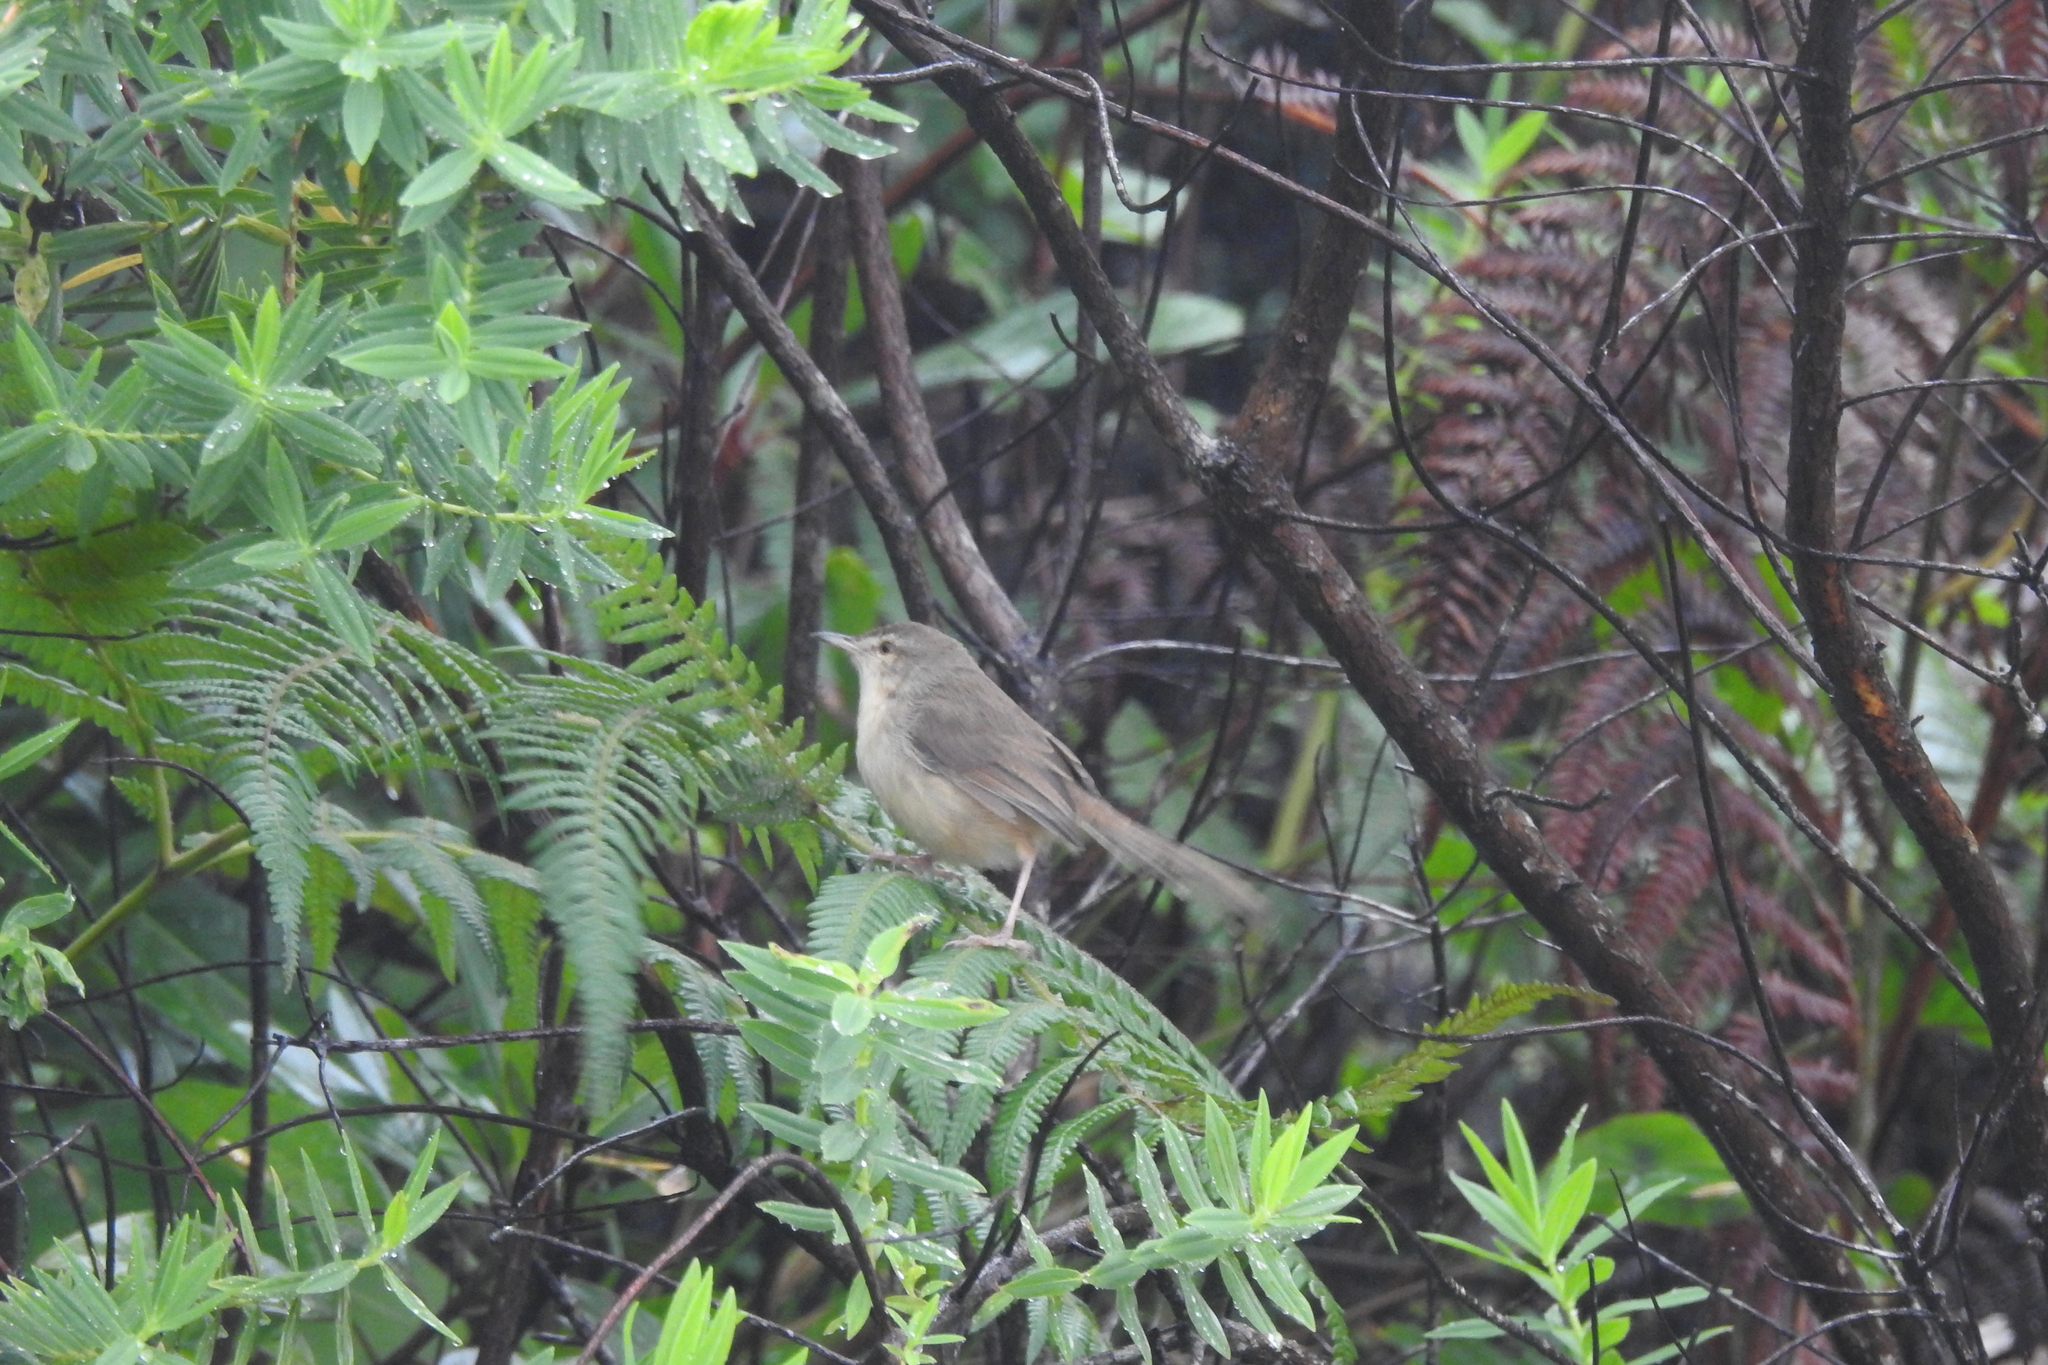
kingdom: Animalia
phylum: Chordata
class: Aves
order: Passeriformes
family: Cisticolidae
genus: Prinia
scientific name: Prinia inornata
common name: Plain prinia
